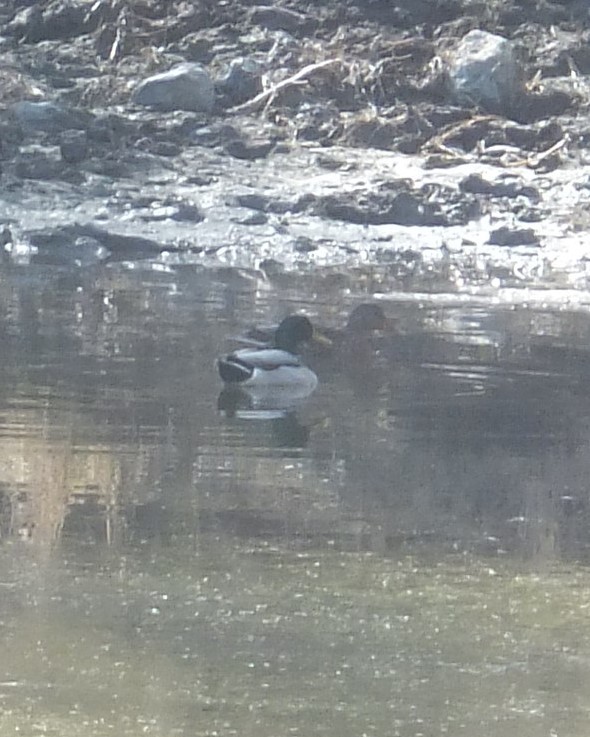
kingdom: Animalia
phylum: Chordata
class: Aves
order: Anseriformes
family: Anatidae
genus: Anas
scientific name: Anas platyrhynchos
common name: Mallard
